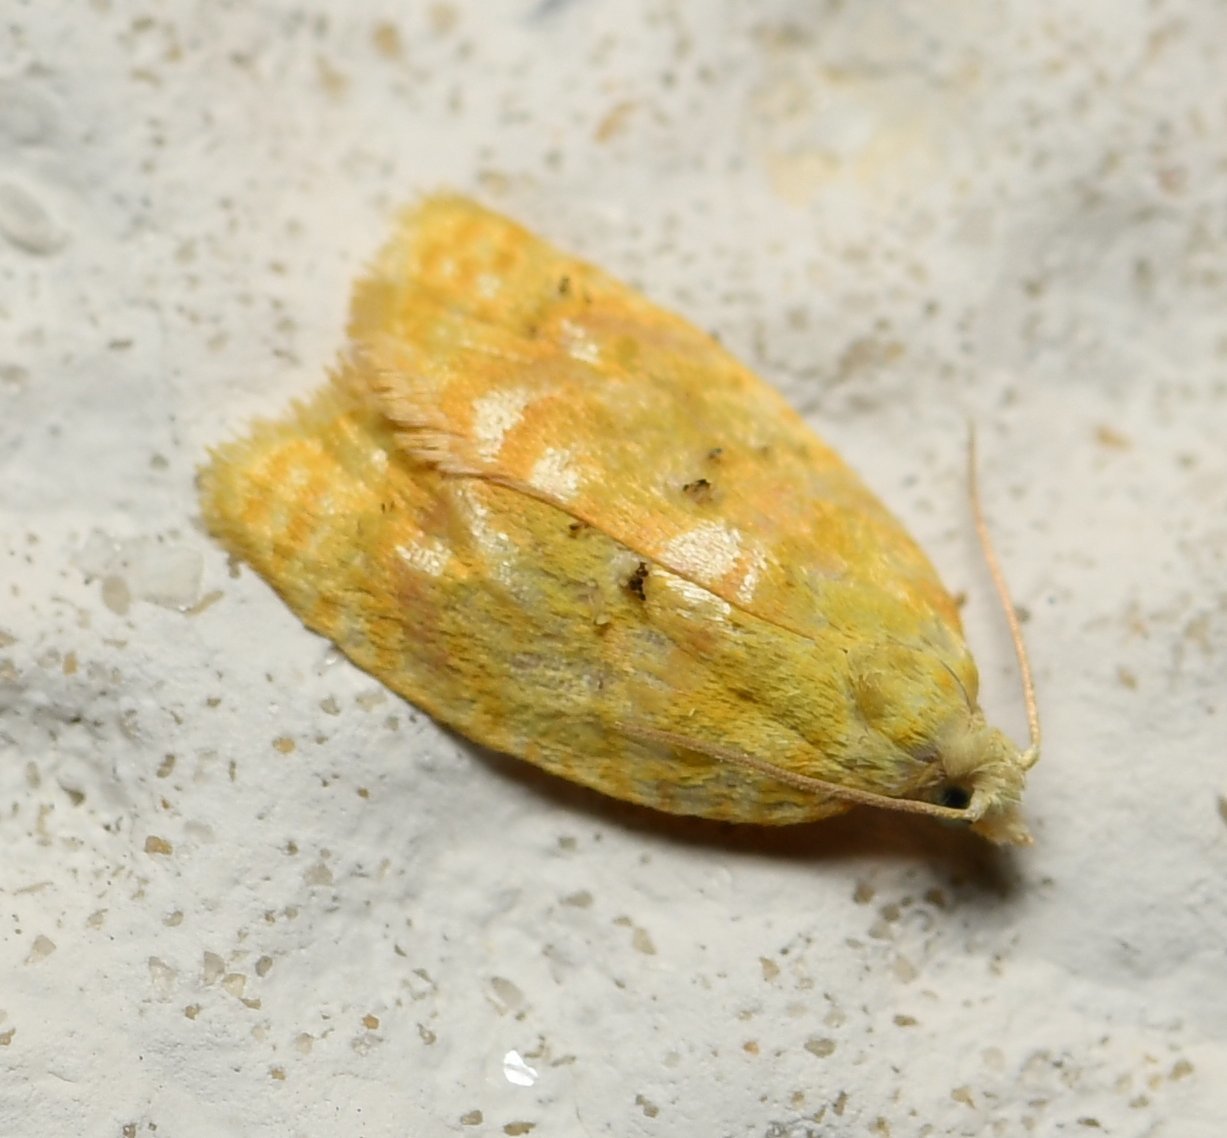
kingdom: Animalia
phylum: Arthropoda
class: Insecta
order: Lepidoptera
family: Tortricidae
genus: Acleris
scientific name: Acleris semipurpurana
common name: Oak leaftier moth
